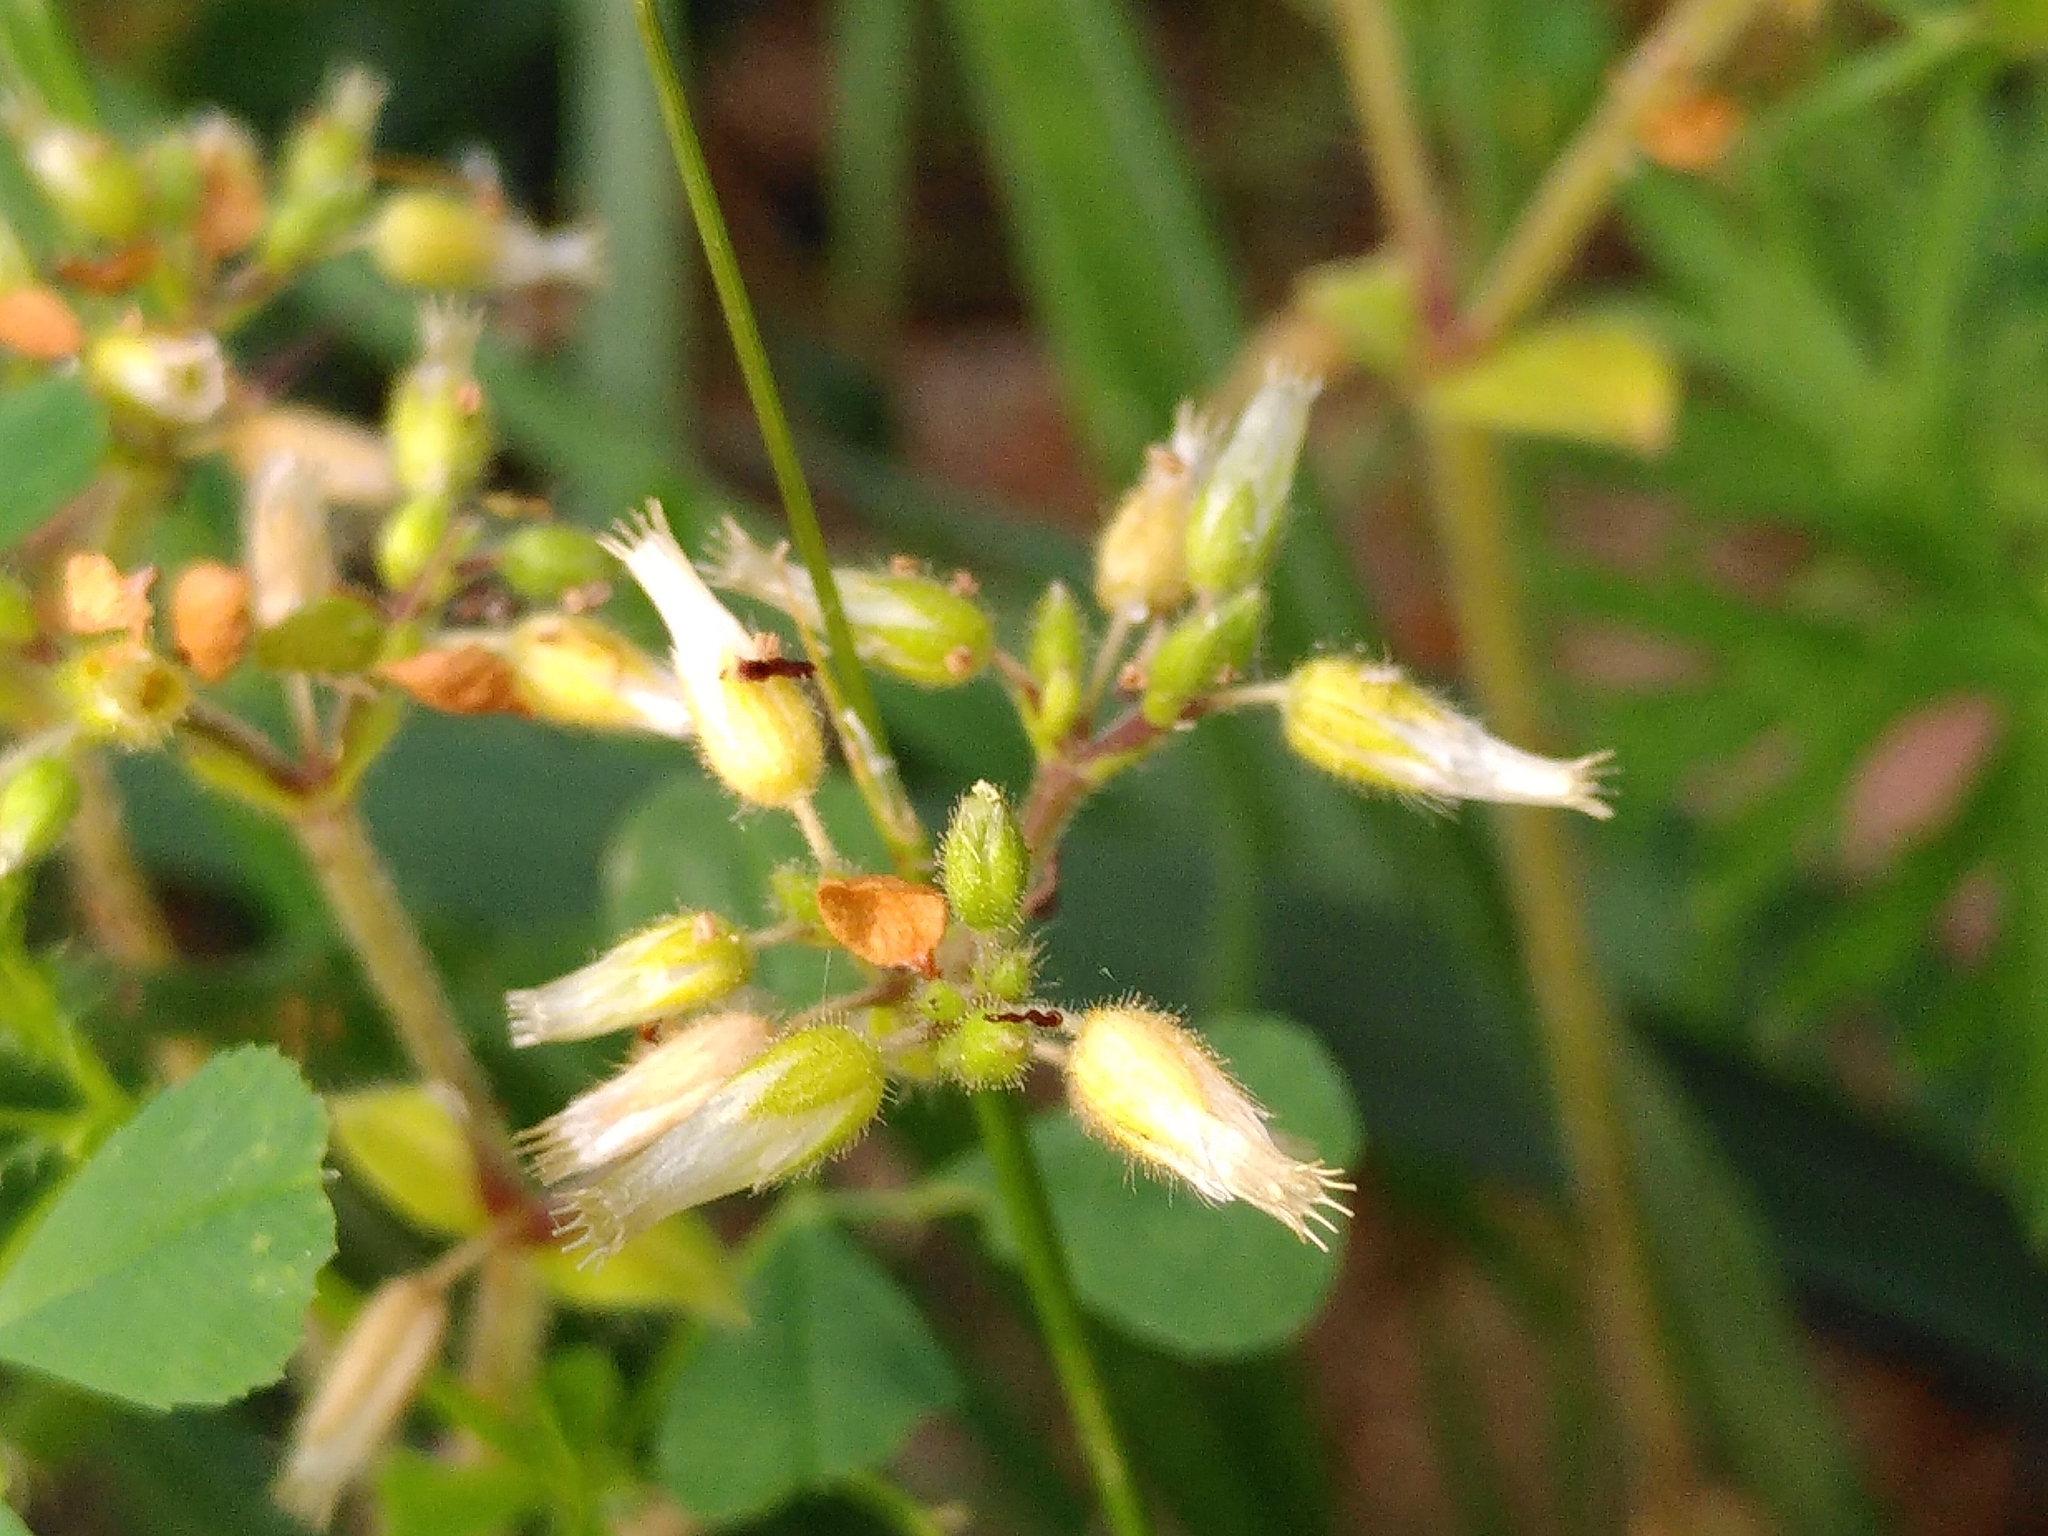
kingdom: Plantae
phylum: Tracheophyta
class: Magnoliopsida
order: Caryophyllales
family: Caryophyllaceae
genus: Cerastium
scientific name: Cerastium glomeratum
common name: Sticky chickweed
